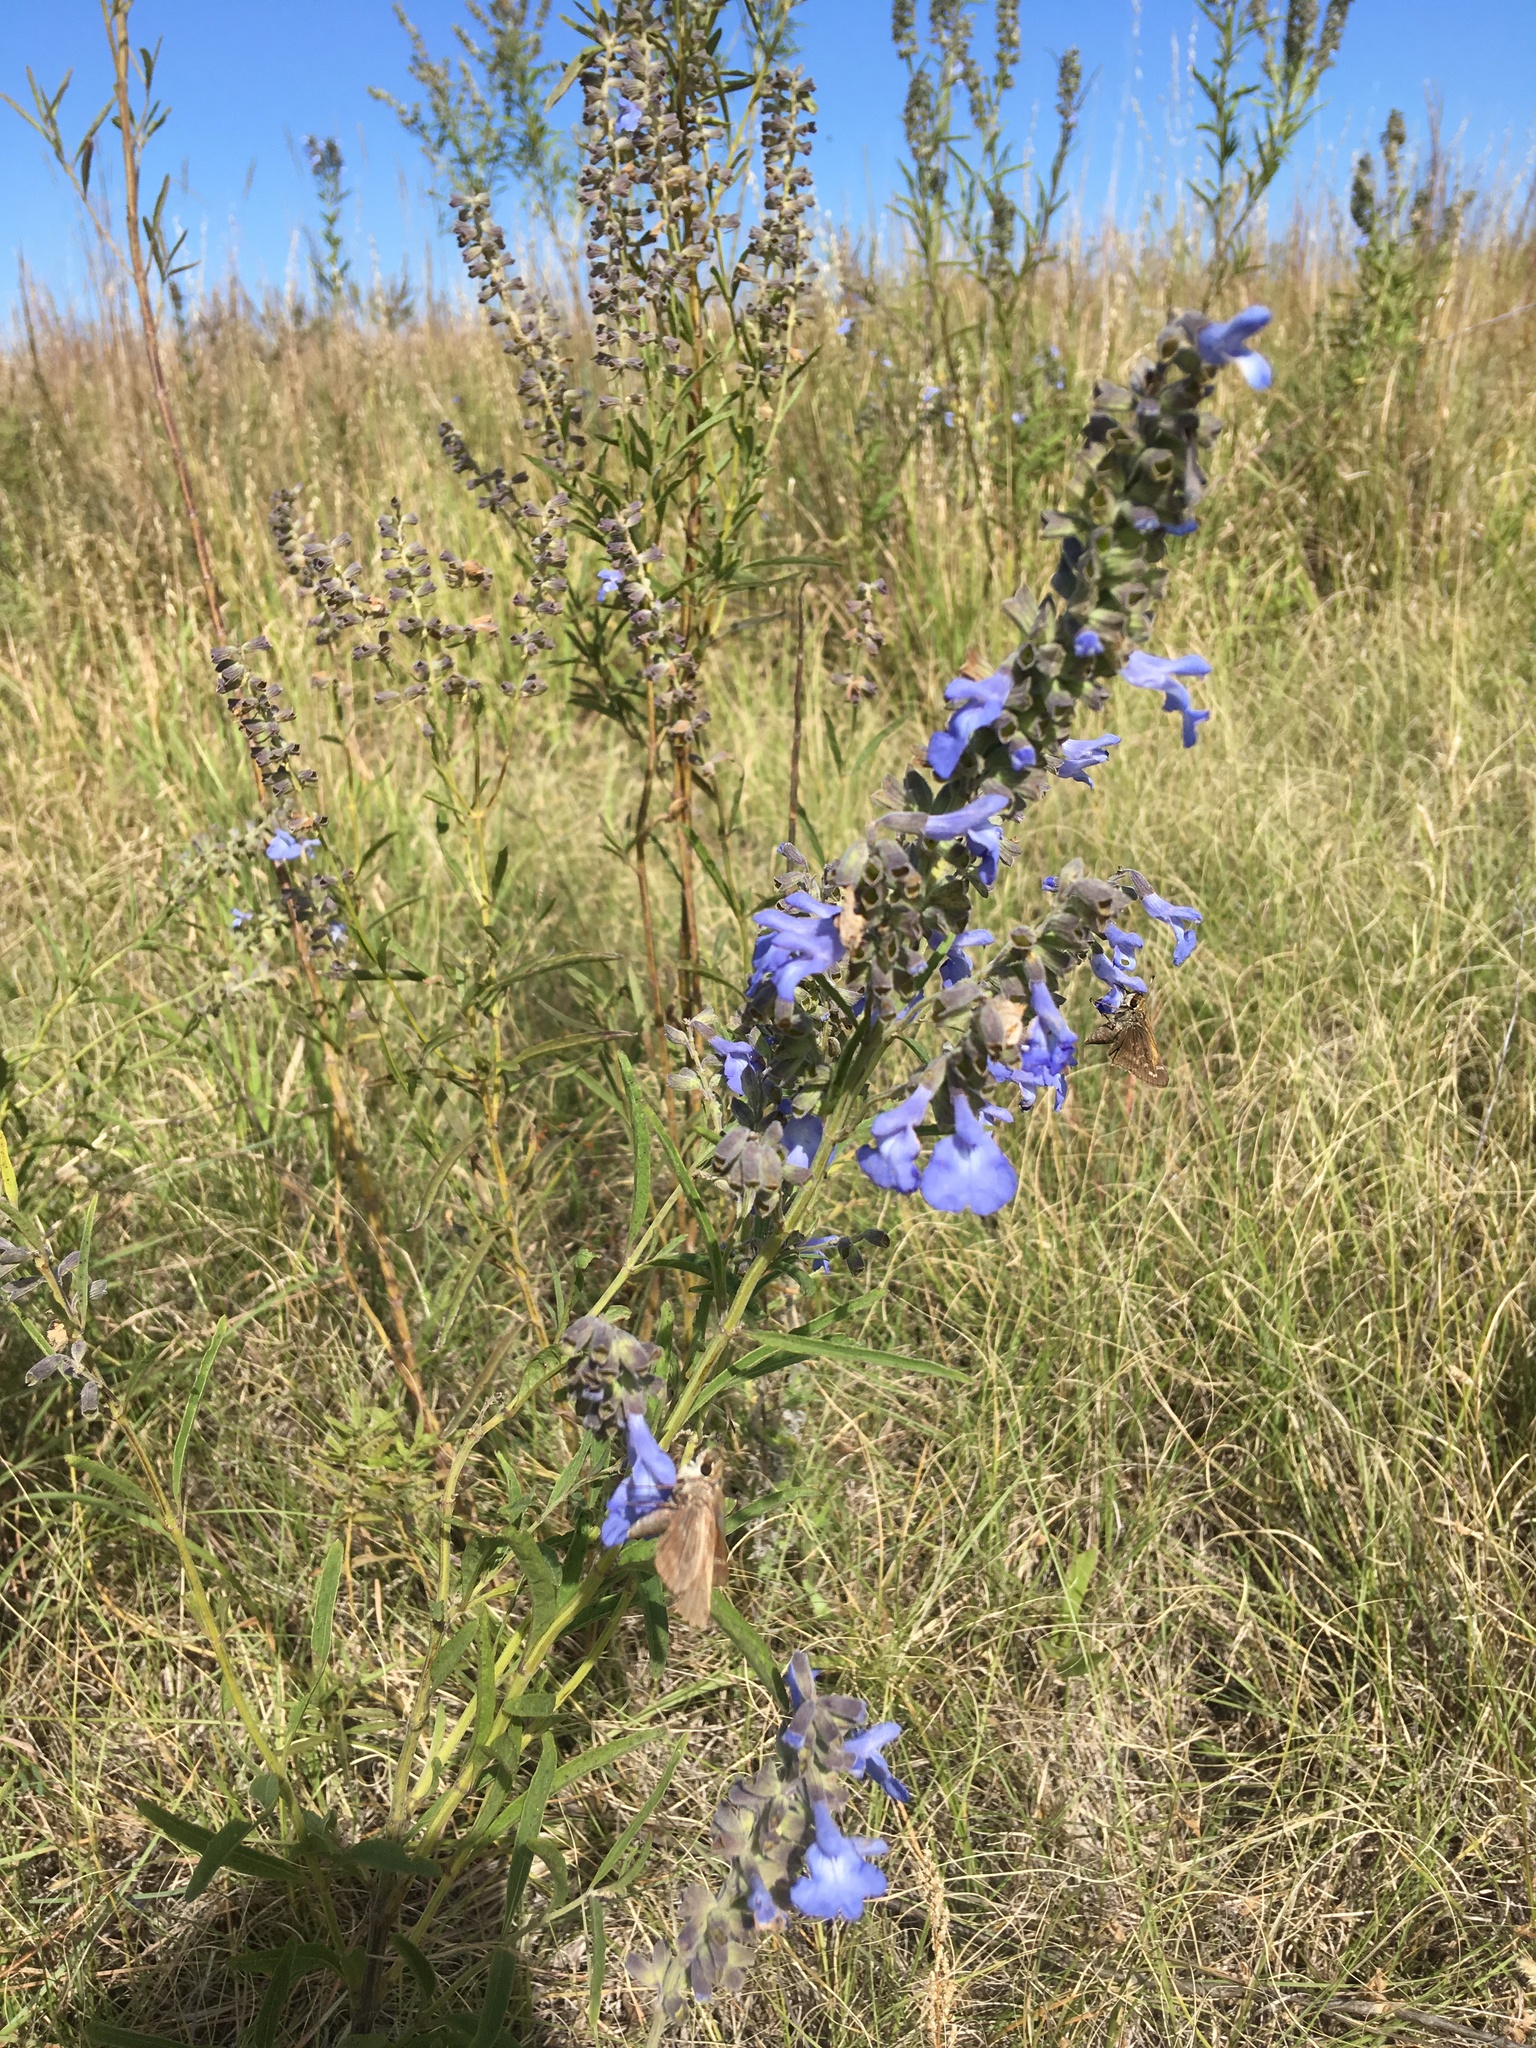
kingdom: Animalia
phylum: Arthropoda
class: Insecta
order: Lepidoptera
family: Hesperiidae
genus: Atalopedes
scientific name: Atalopedes
